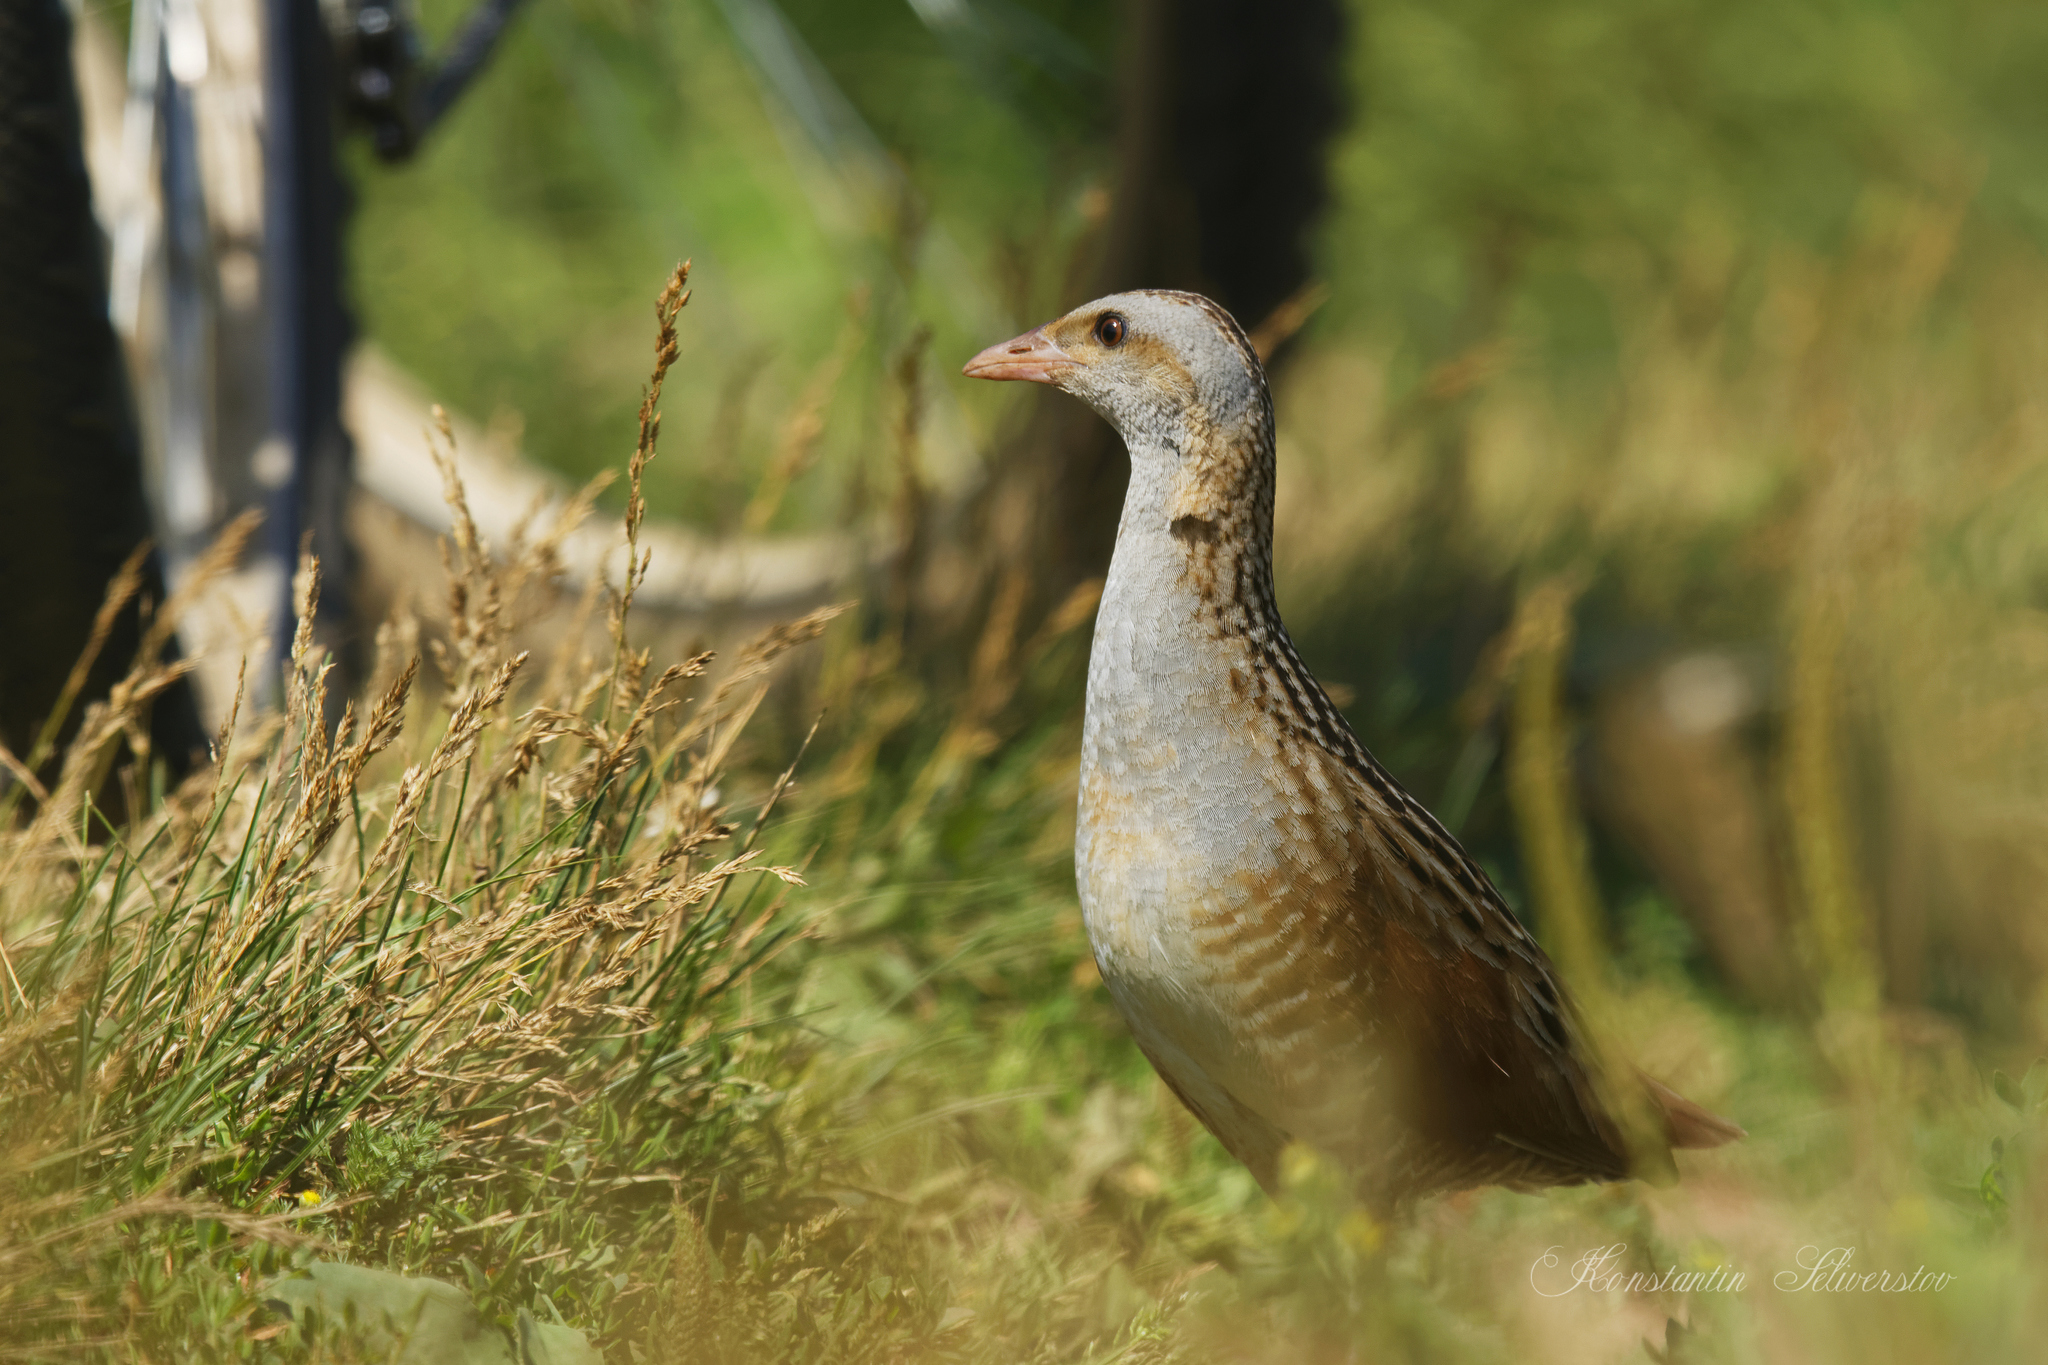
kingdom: Animalia
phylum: Chordata
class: Aves
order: Gruiformes
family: Rallidae
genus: Crex
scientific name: Crex crex
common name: Corn crake
